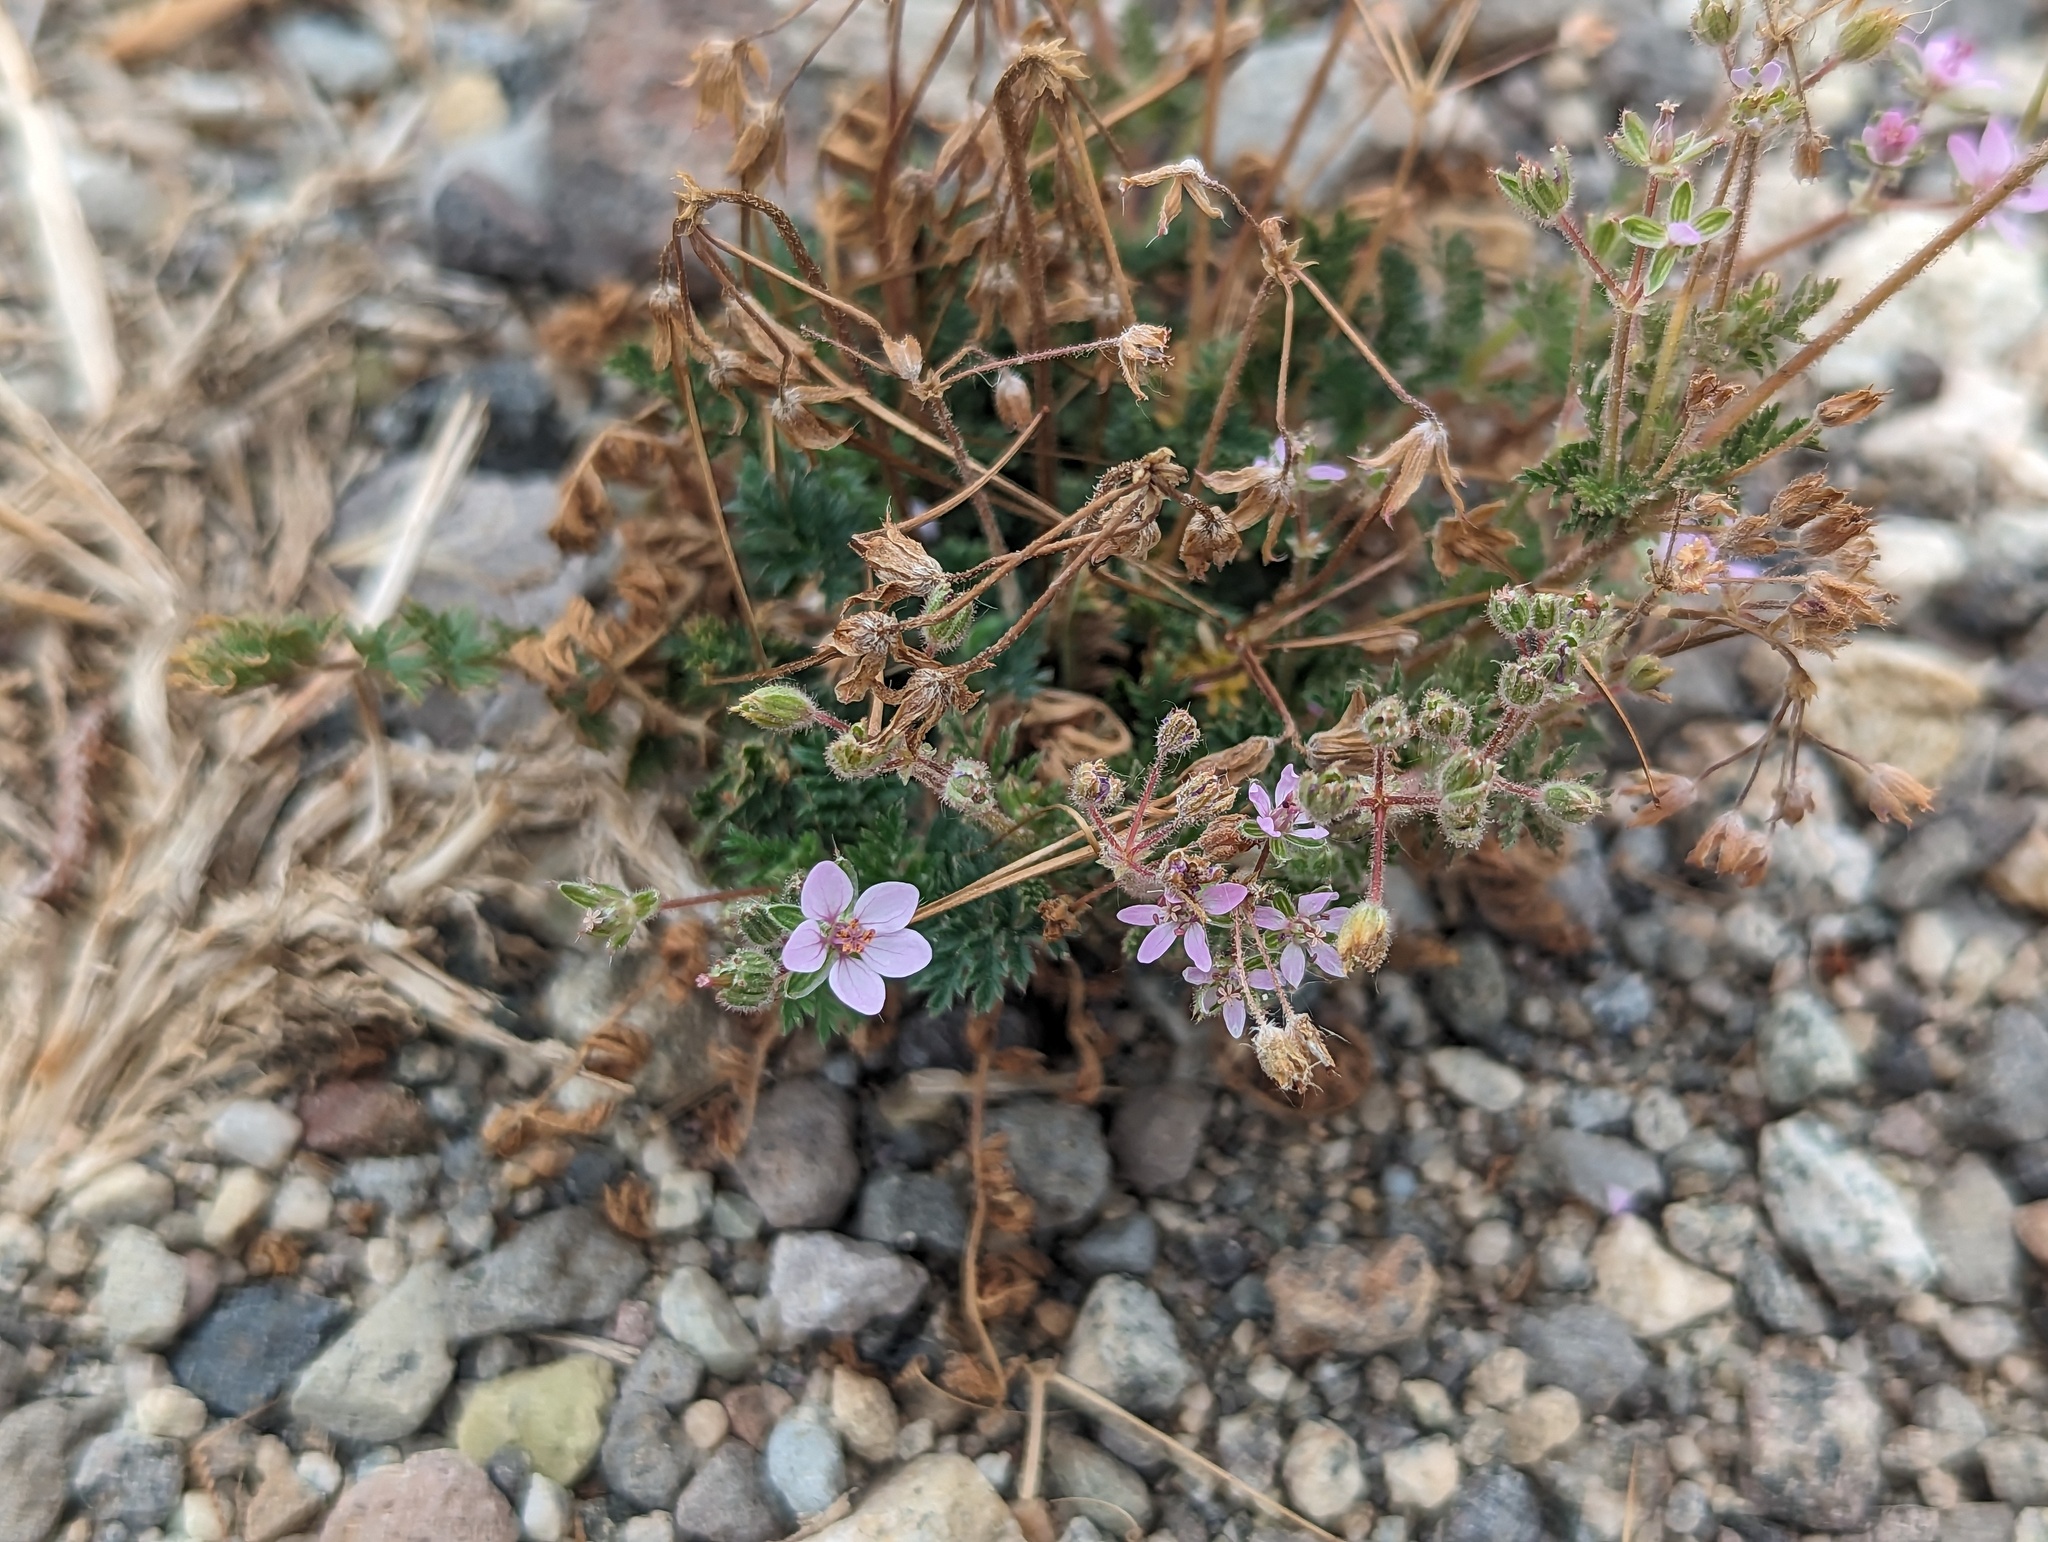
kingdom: Plantae
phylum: Tracheophyta
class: Magnoliopsida
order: Geraniales
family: Geraniaceae
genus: Erodium
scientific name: Erodium cicutarium
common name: Common stork's-bill
